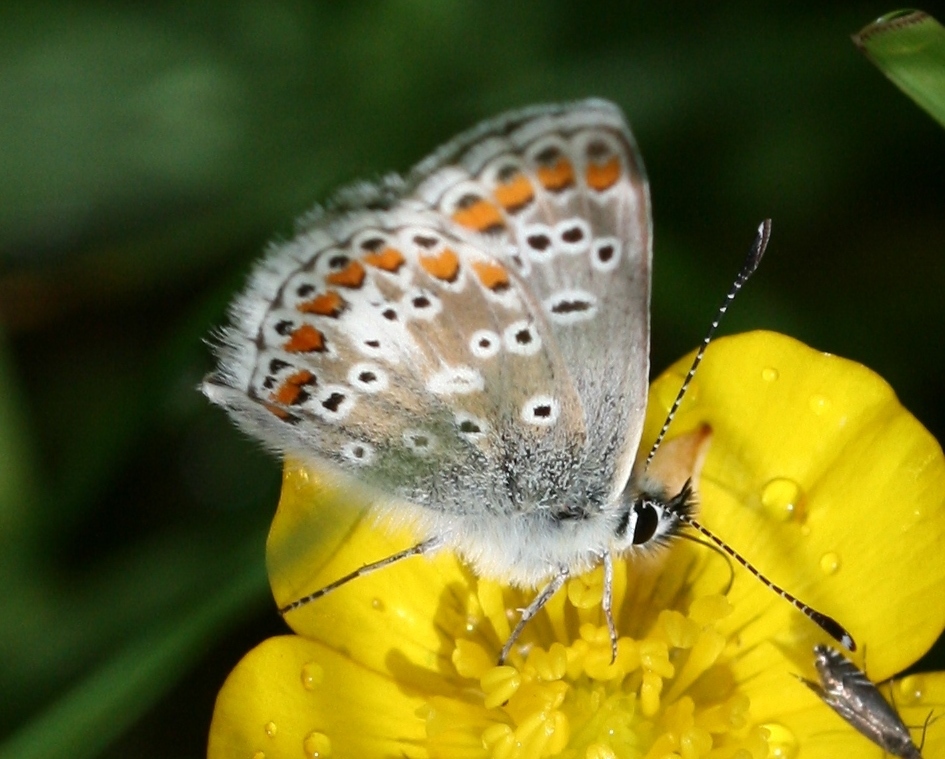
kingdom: Animalia
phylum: Arthropoda
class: Insecta
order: Lepidoptera
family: Lycaenidae
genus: Aricia
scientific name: Aricia agestis
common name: Brown argus
